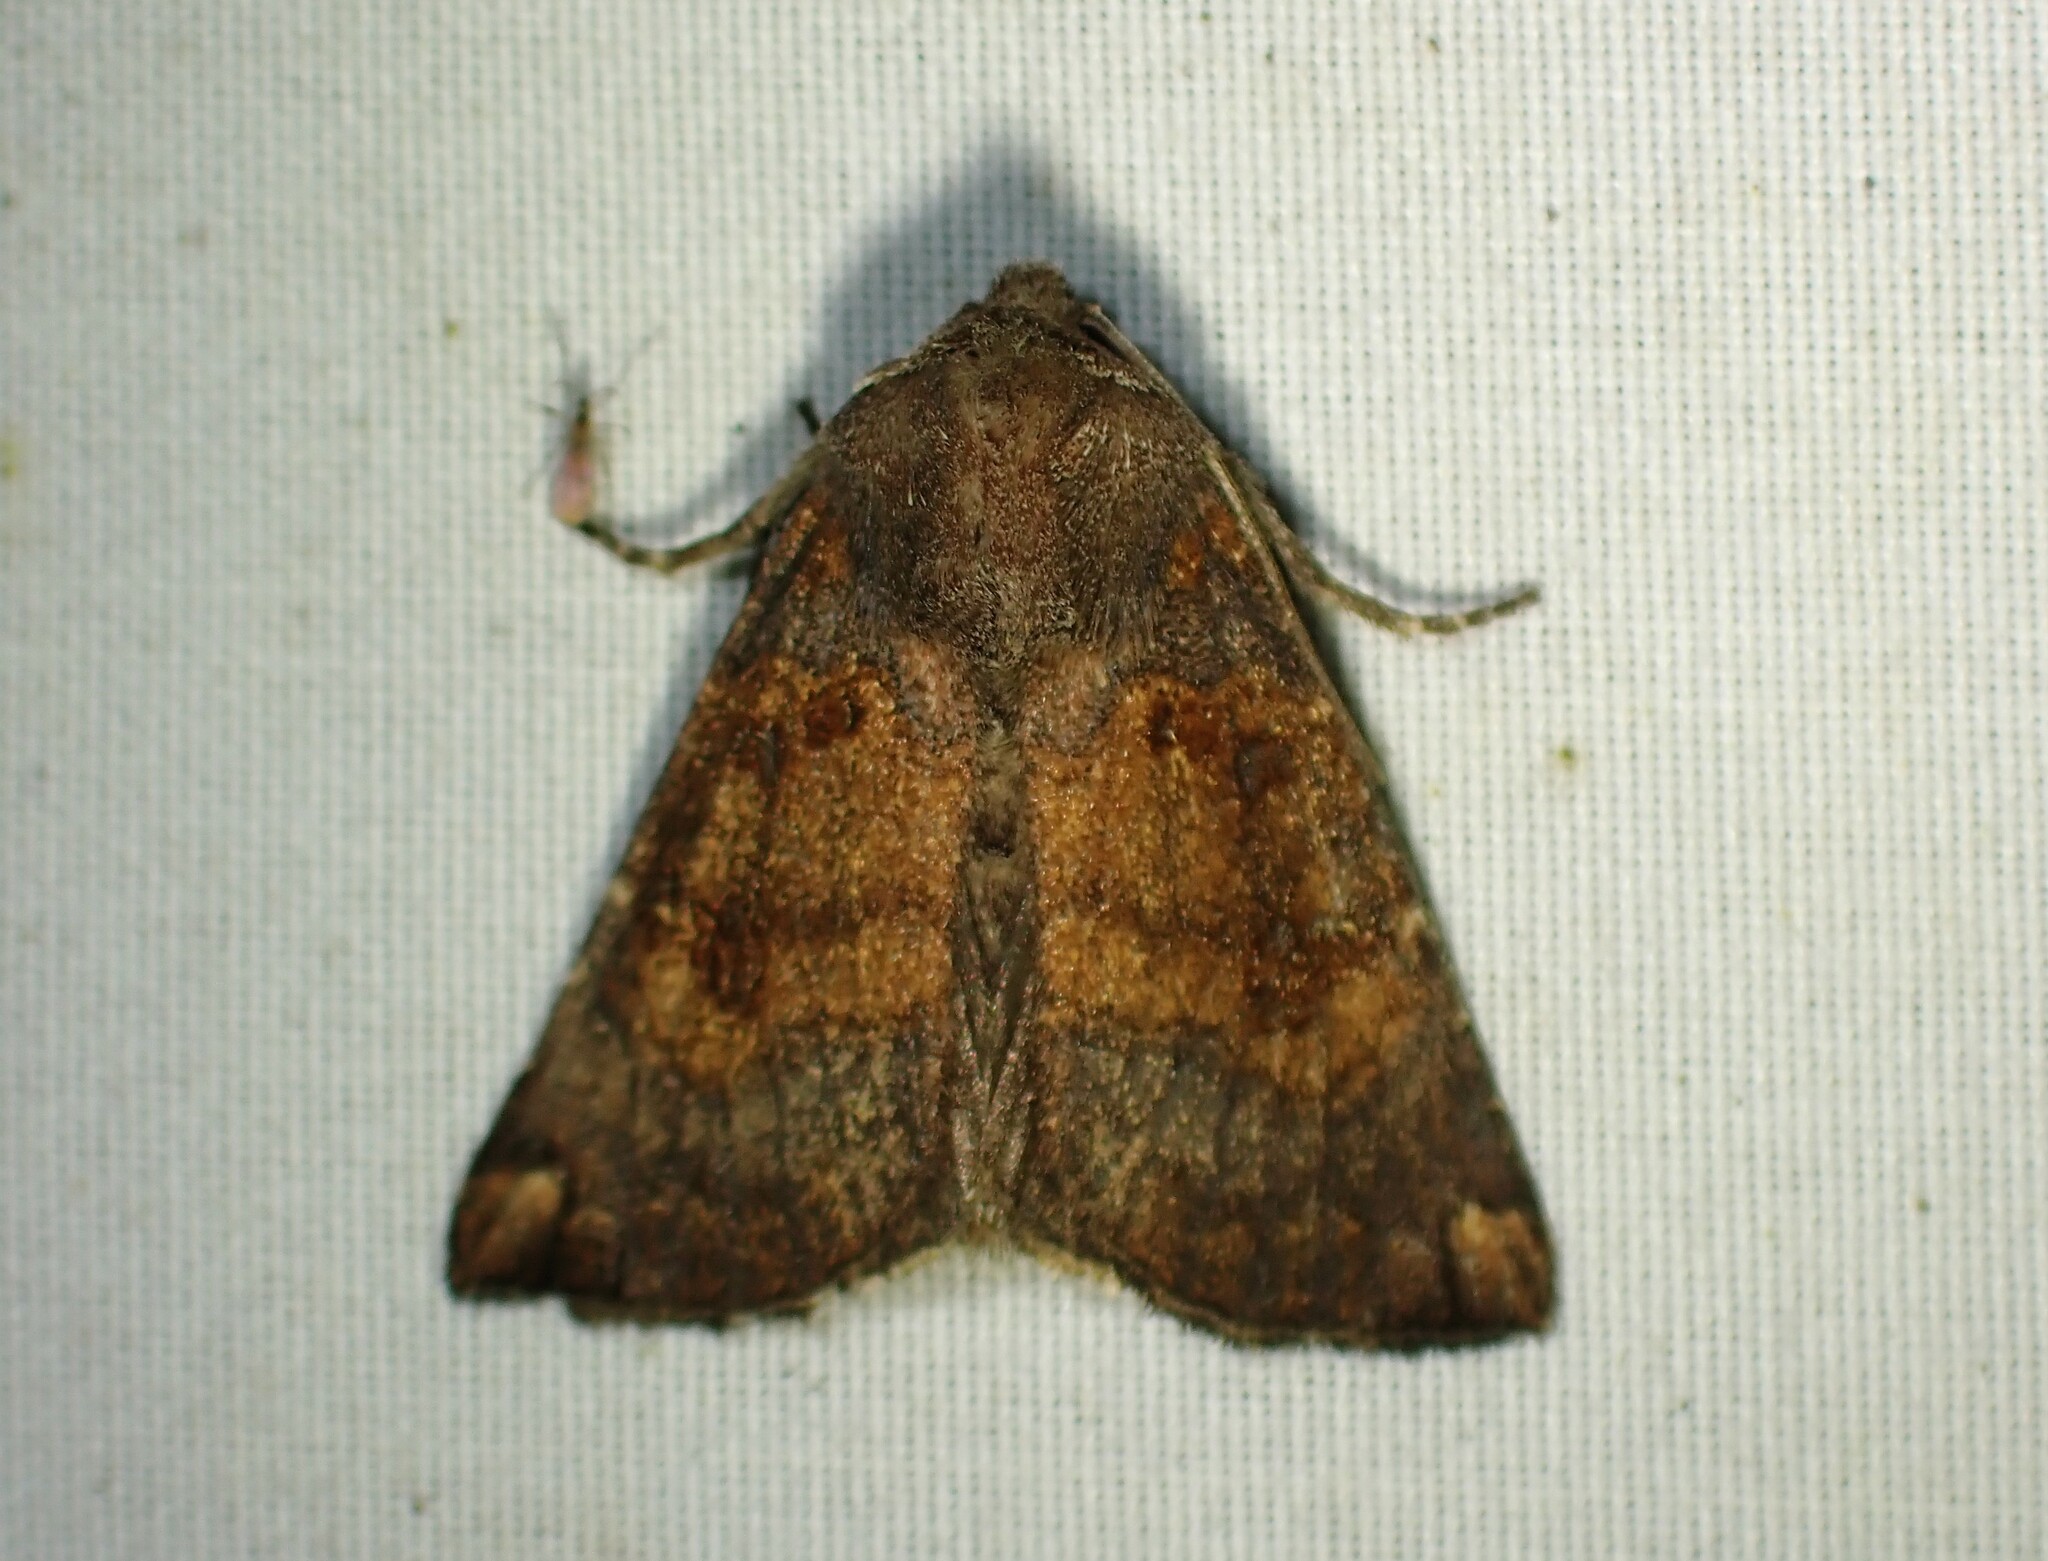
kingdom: Animalia
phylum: Arthropoda
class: Insecta
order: Lepidoptera
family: Noctuidae
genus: Papaipema
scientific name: Papaipema unimoda
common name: Meadow rue borer moth
